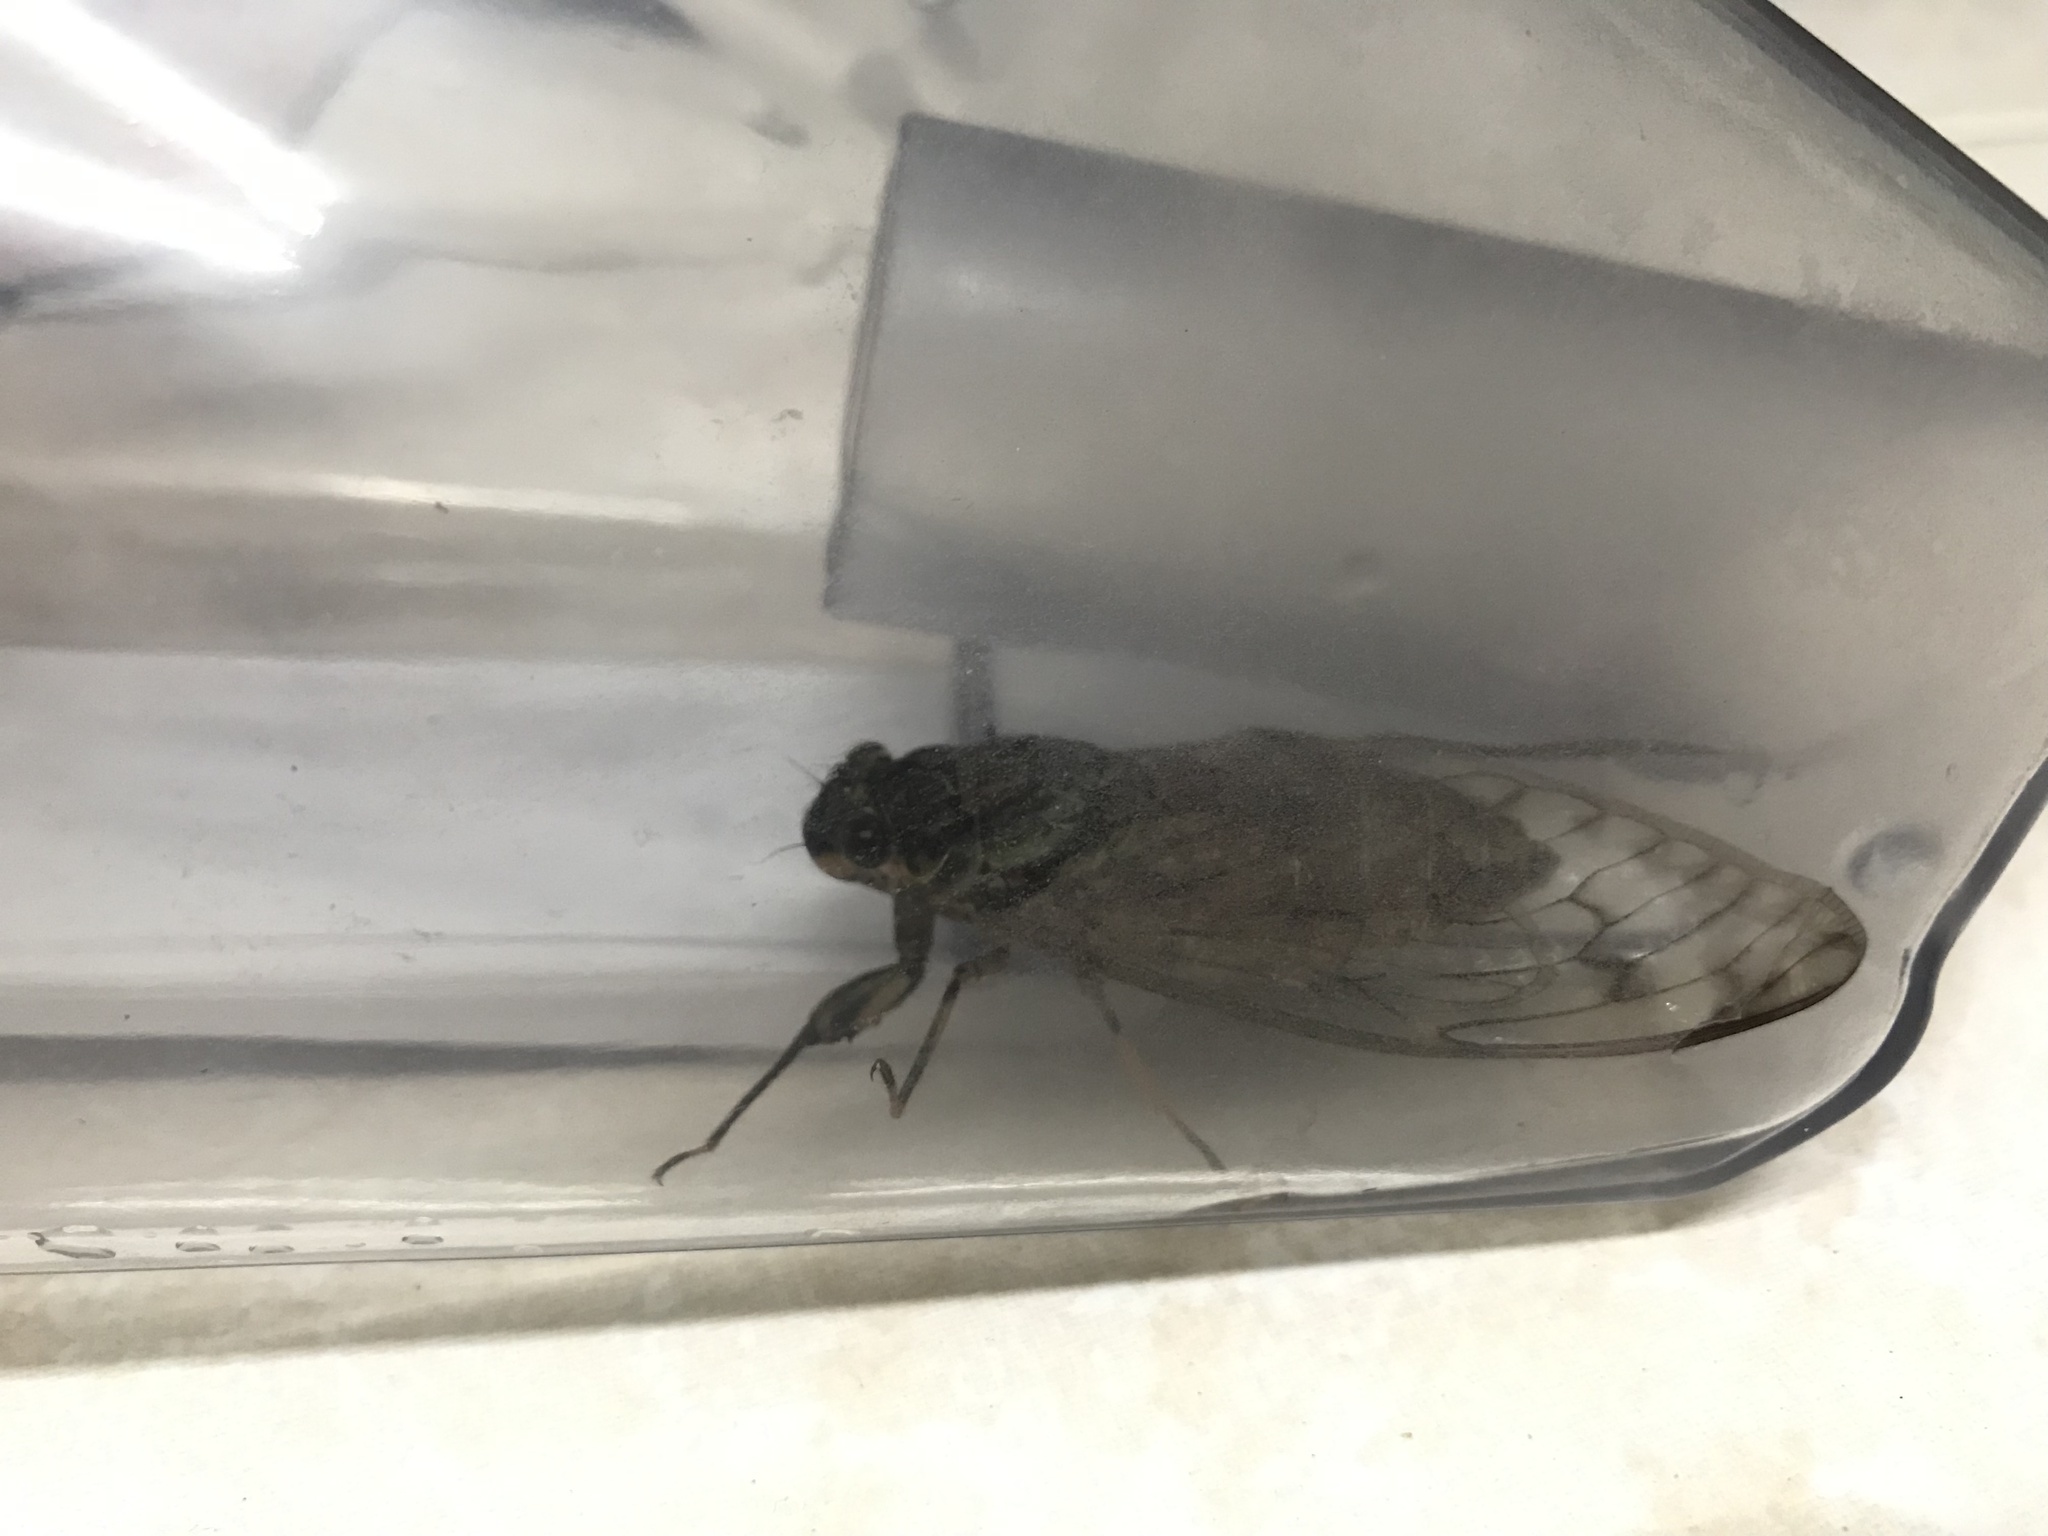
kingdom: Animalia
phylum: Arthropoda
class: Insecta
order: Hemiptera
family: Cicadidae
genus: Pomponia
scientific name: Pomponia yayeyamana
